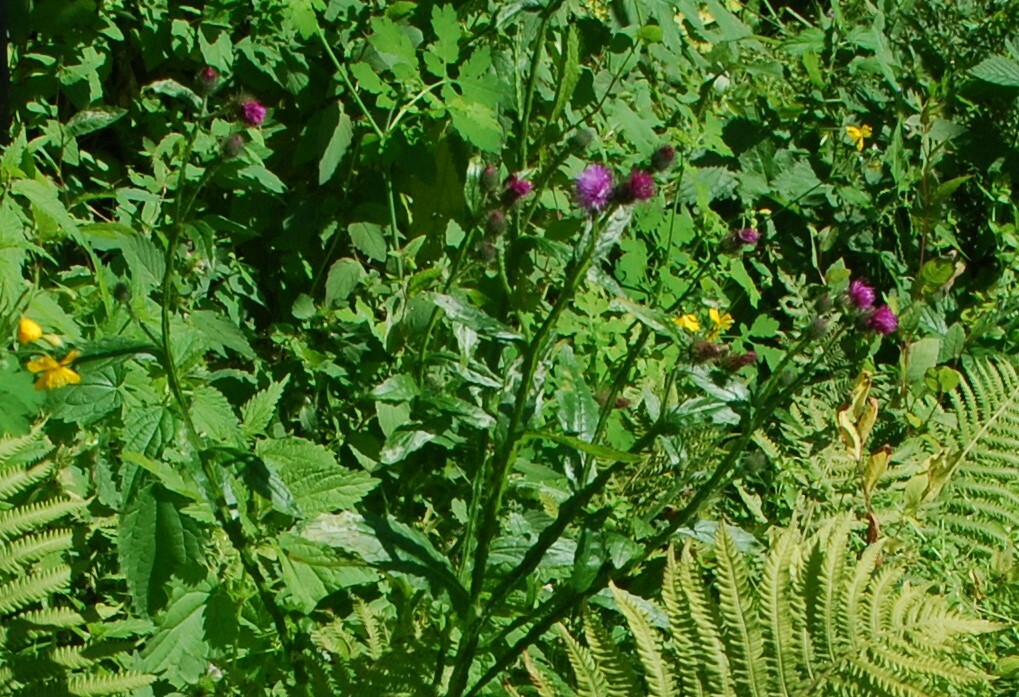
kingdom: Plantae
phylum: Tracheophyta
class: Magnoliopsida
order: Asterales
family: Asteraceae
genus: Carduus
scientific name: Carduus crispus
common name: Welted thistle
